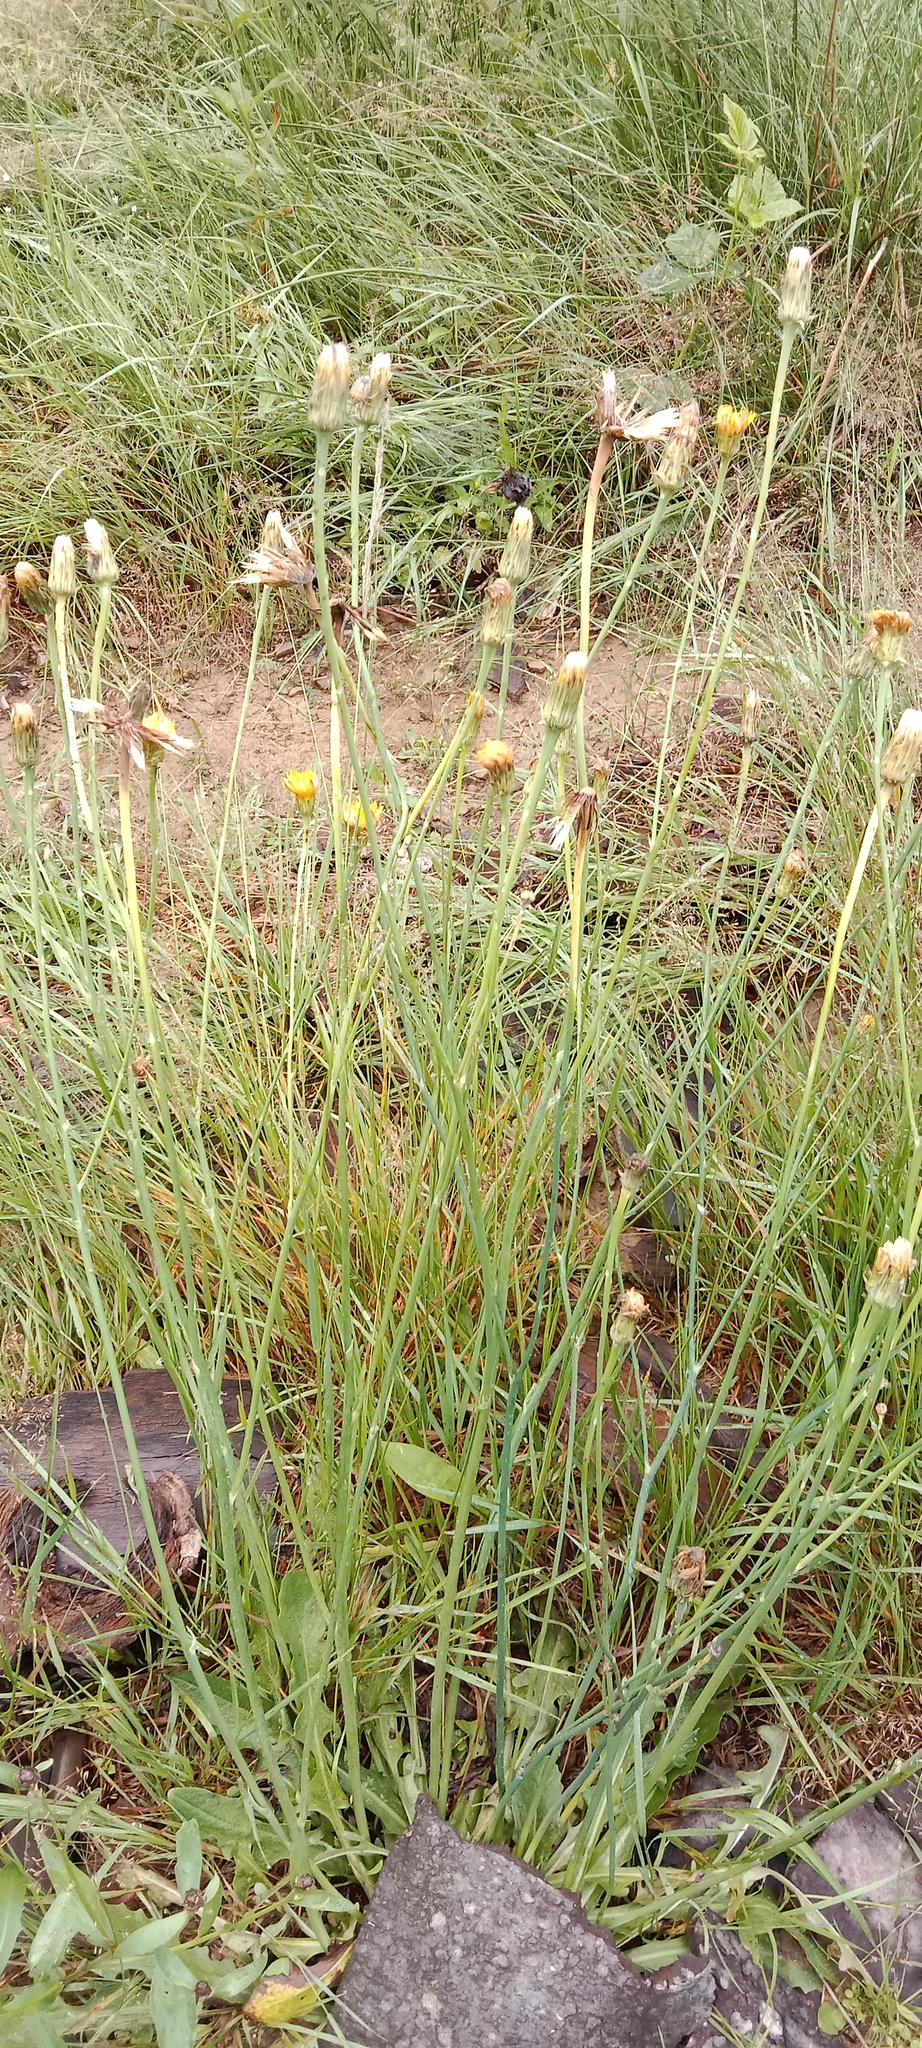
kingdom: Plantae
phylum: Tracheophyta
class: Magnoliopsida
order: Asterales
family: Asteraceae
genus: Hypochaeris
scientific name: Hypochaeris radicata
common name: Flatweed
